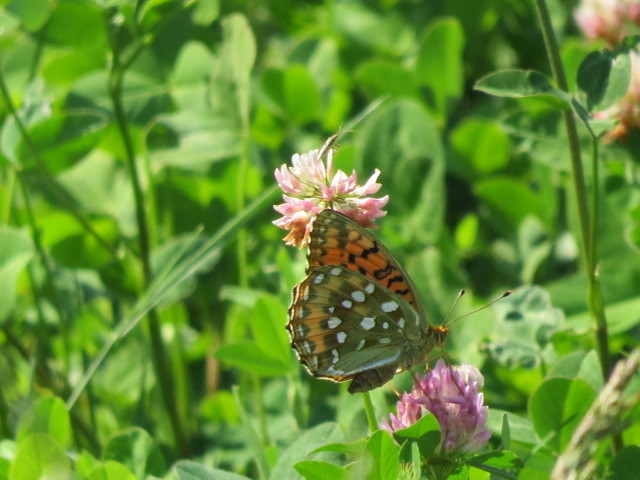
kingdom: Animalia
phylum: Arthropoda
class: Insecta
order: Lepidoptera
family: Nymphalidae
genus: Speyeria
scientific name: Speyeria aglaja
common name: Dark green fritillary
